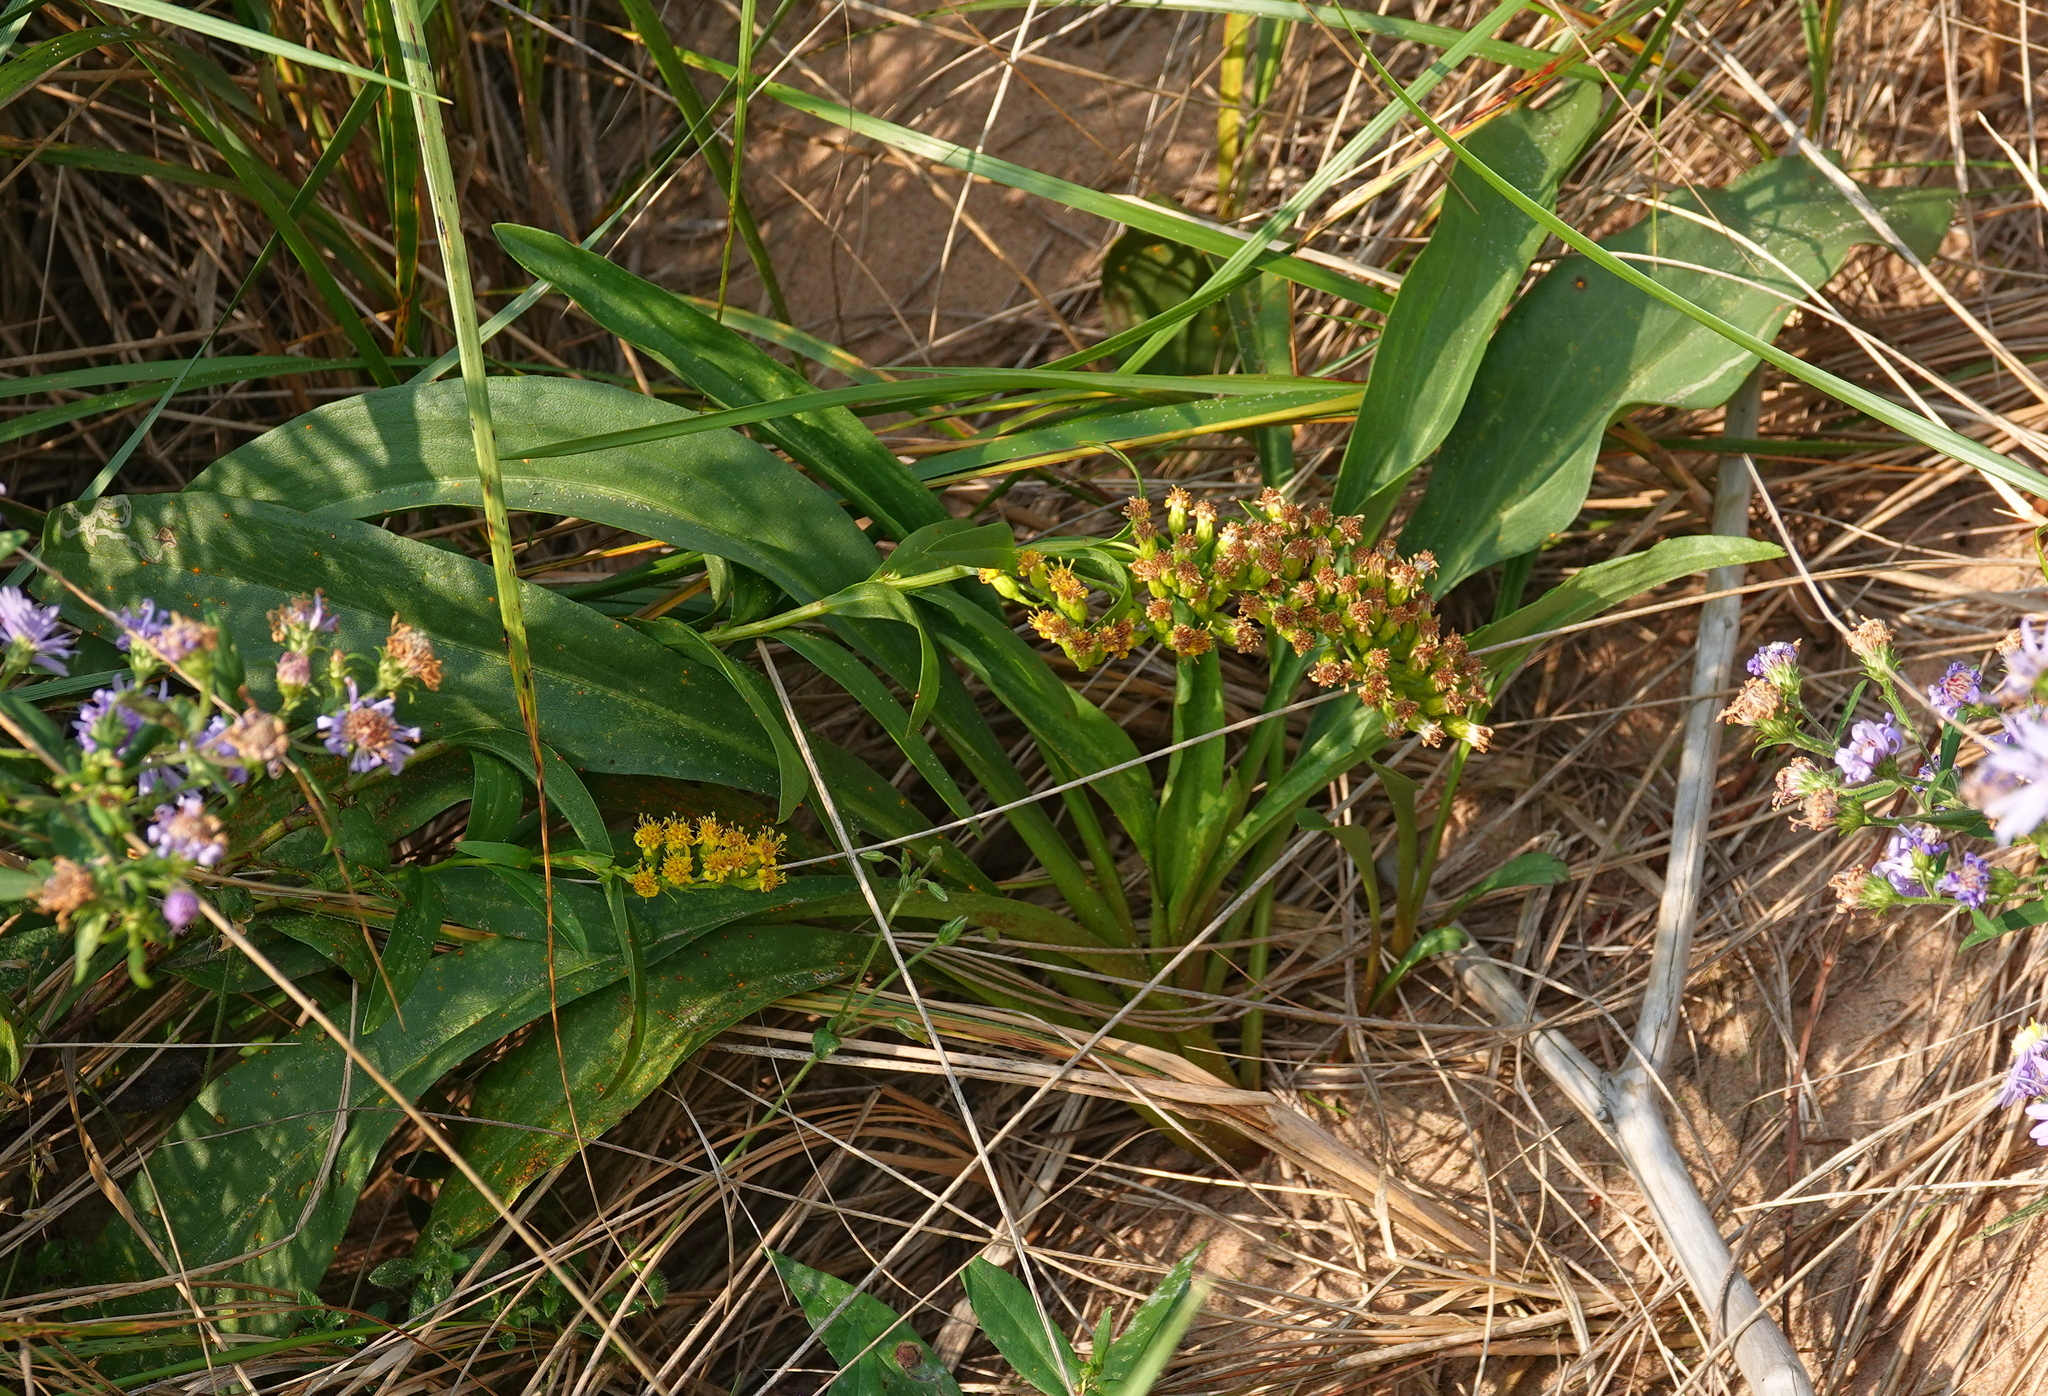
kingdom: Plantae
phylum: Tracheophyta
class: Magnoliopsida
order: Asterales
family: Asteraceae
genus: Solidago
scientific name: Solidago sempervirens
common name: Salt-marsh goldenrod
